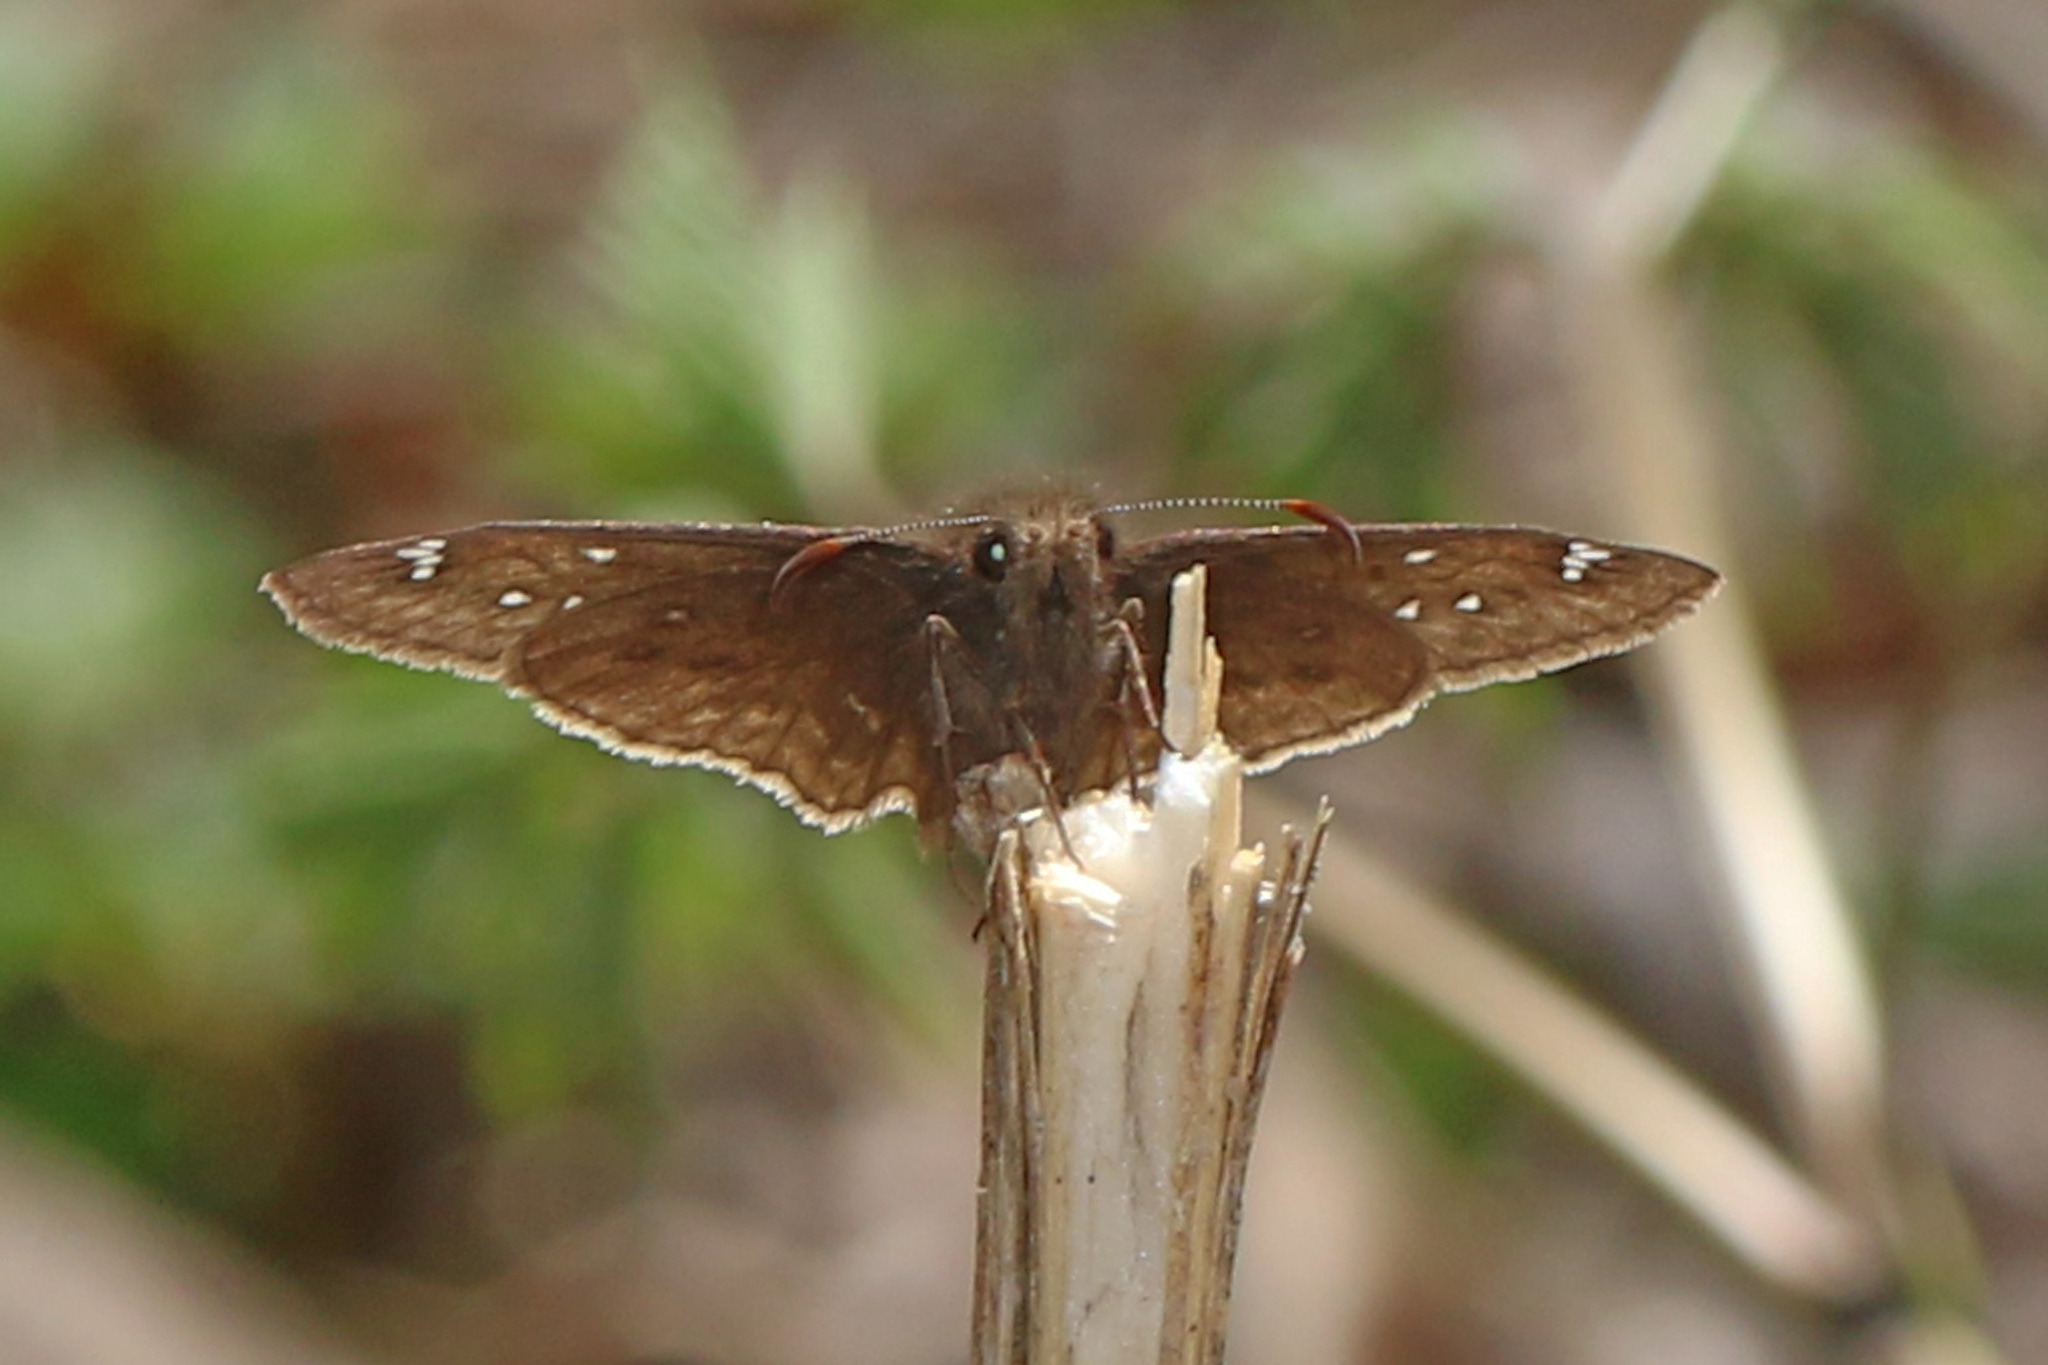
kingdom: Animalia
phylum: Arthropoda
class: Insecta
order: Lepidoptera
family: Hesperiidae
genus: Erynnis
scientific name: Erynnis juvenalis
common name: Juvenal's duskywing
